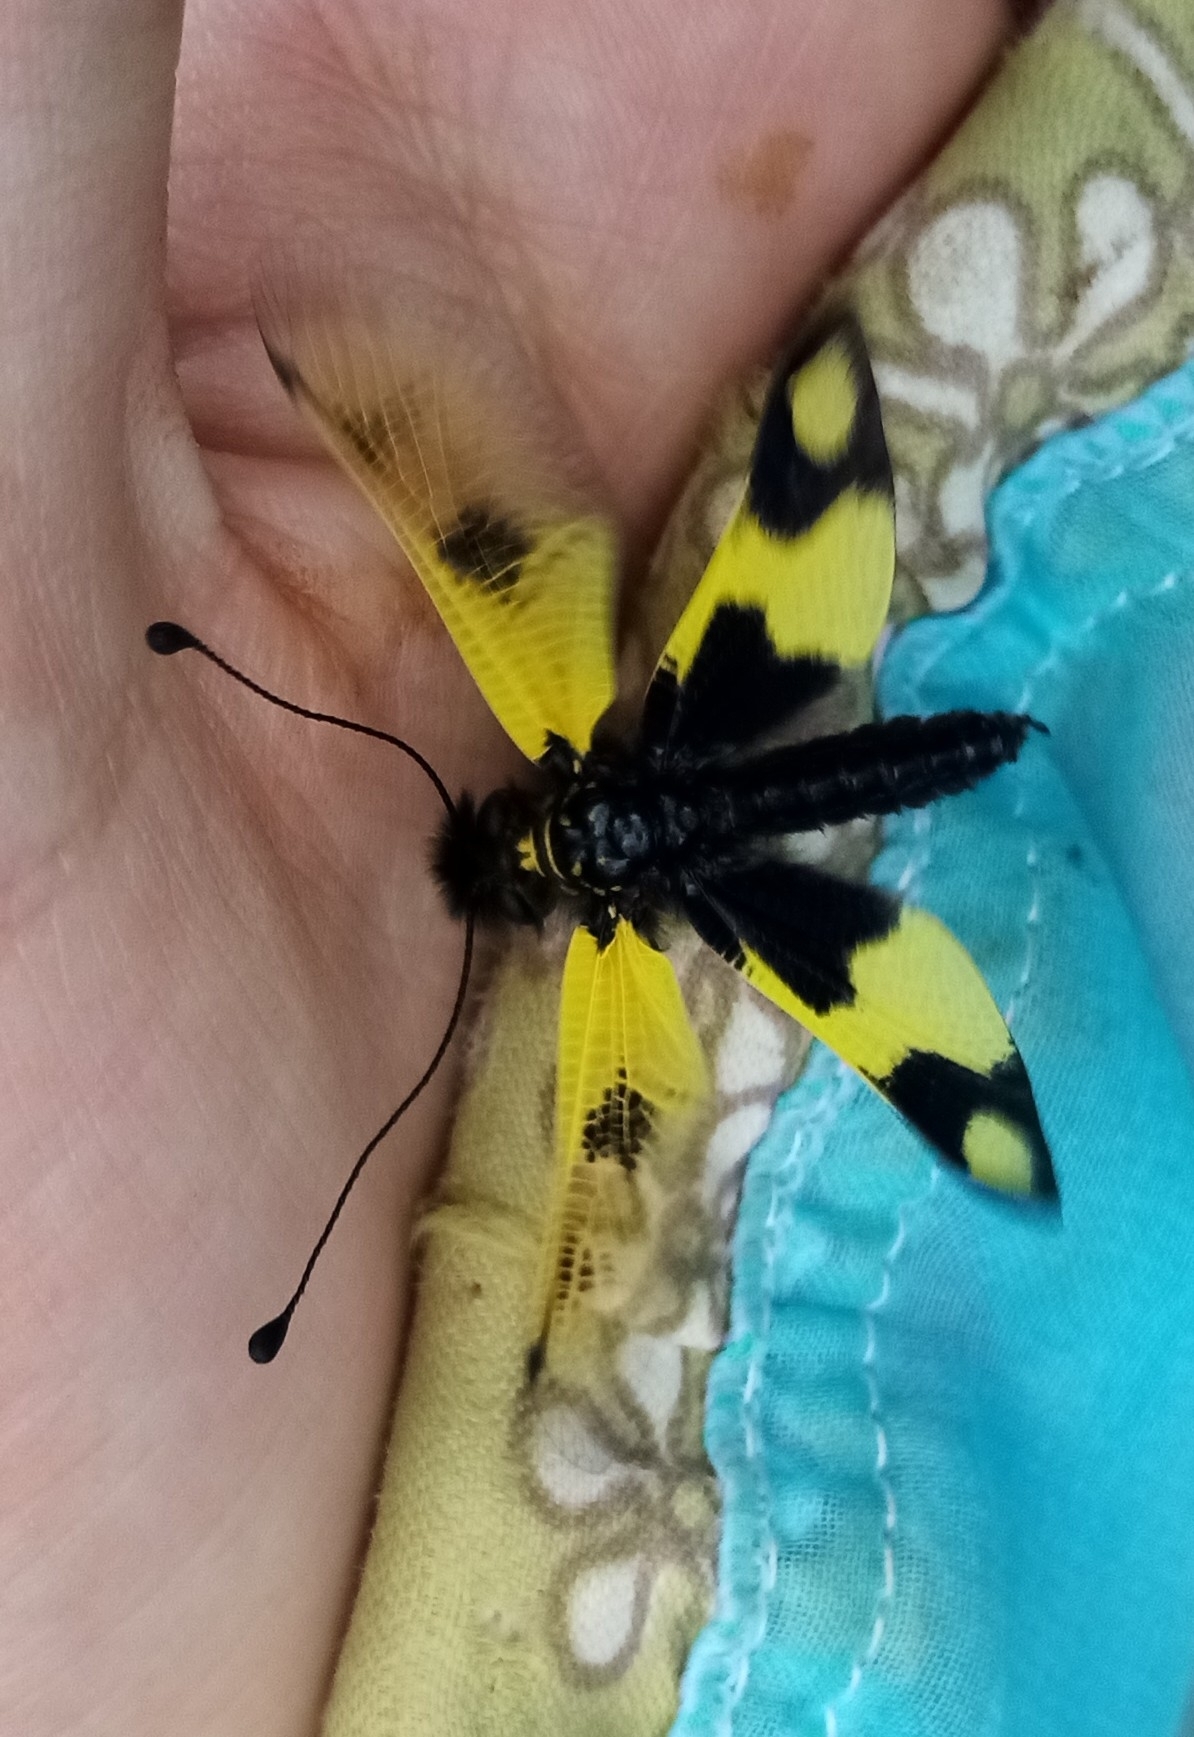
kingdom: Animalia
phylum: Arthropoda
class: Insecta
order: Neuroptera
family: Ascalaphidae
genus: Libelloides
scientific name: Libelloides macaronius
